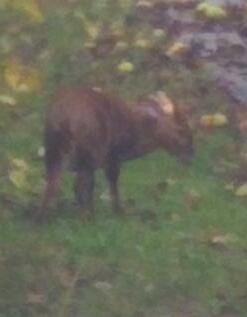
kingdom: Animalia
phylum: Chordata
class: Mammalia
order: Artiodactyla
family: Cervidae
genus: Muntiacus
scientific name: Muntiacus reevesi
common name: Reeves' muntjac
